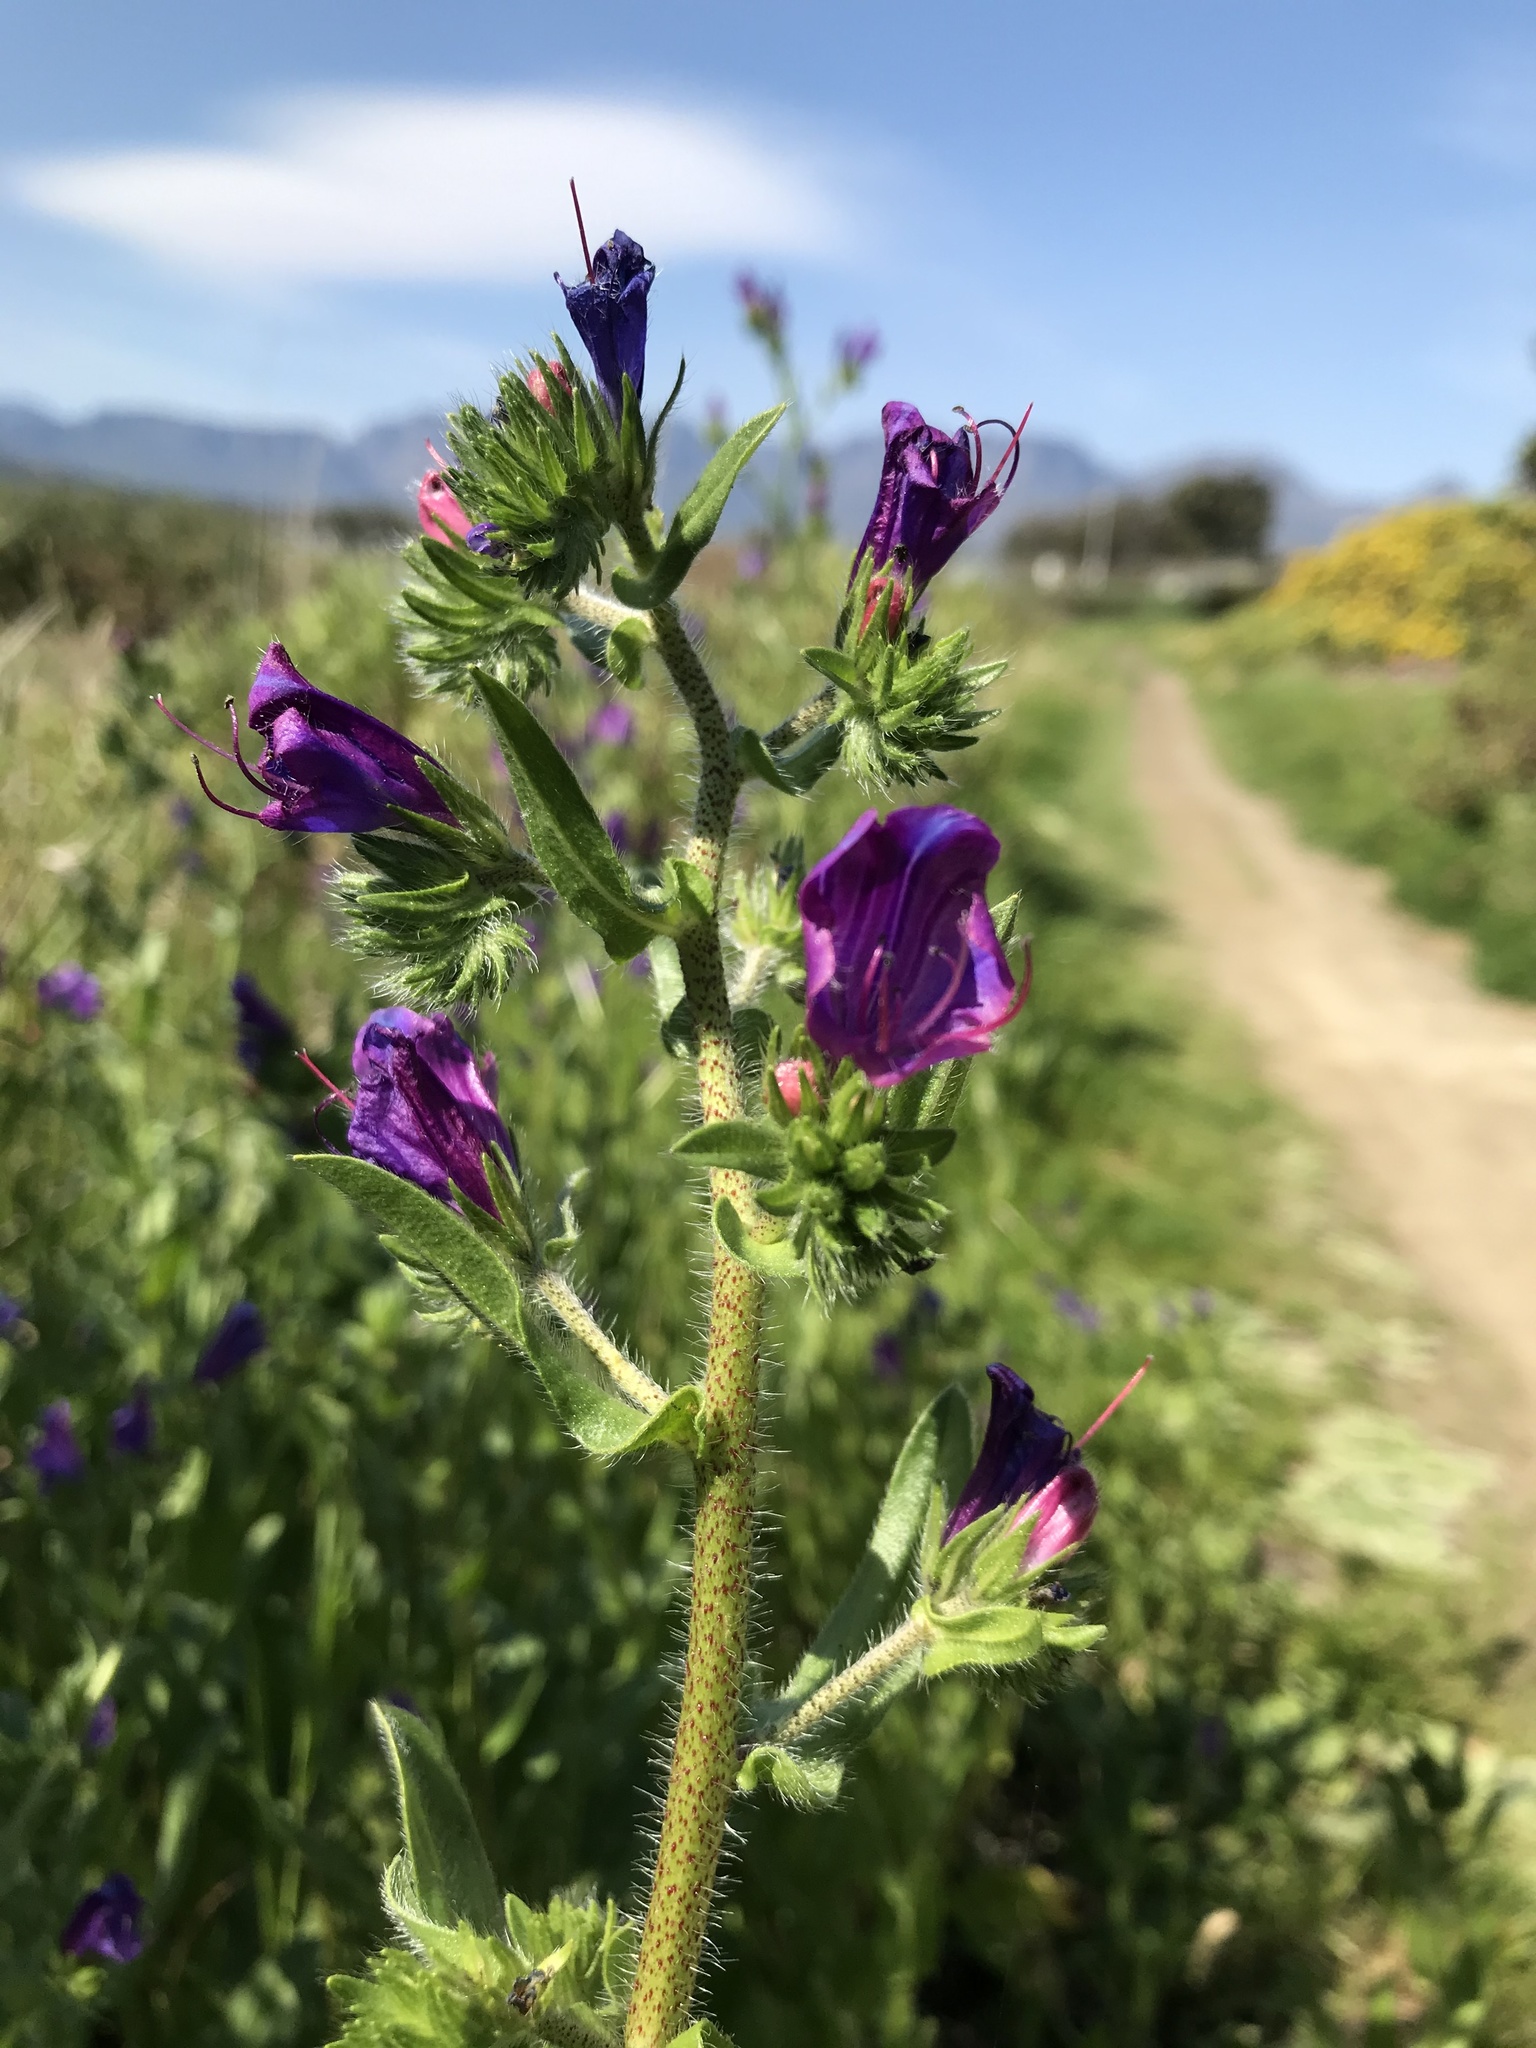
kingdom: Plantae
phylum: Tracheophyta
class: Magnoliopsida
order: Boraginales
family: Boraginaceae
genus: Echium
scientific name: Echium plantagineum
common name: Purple viper's-bugloss
